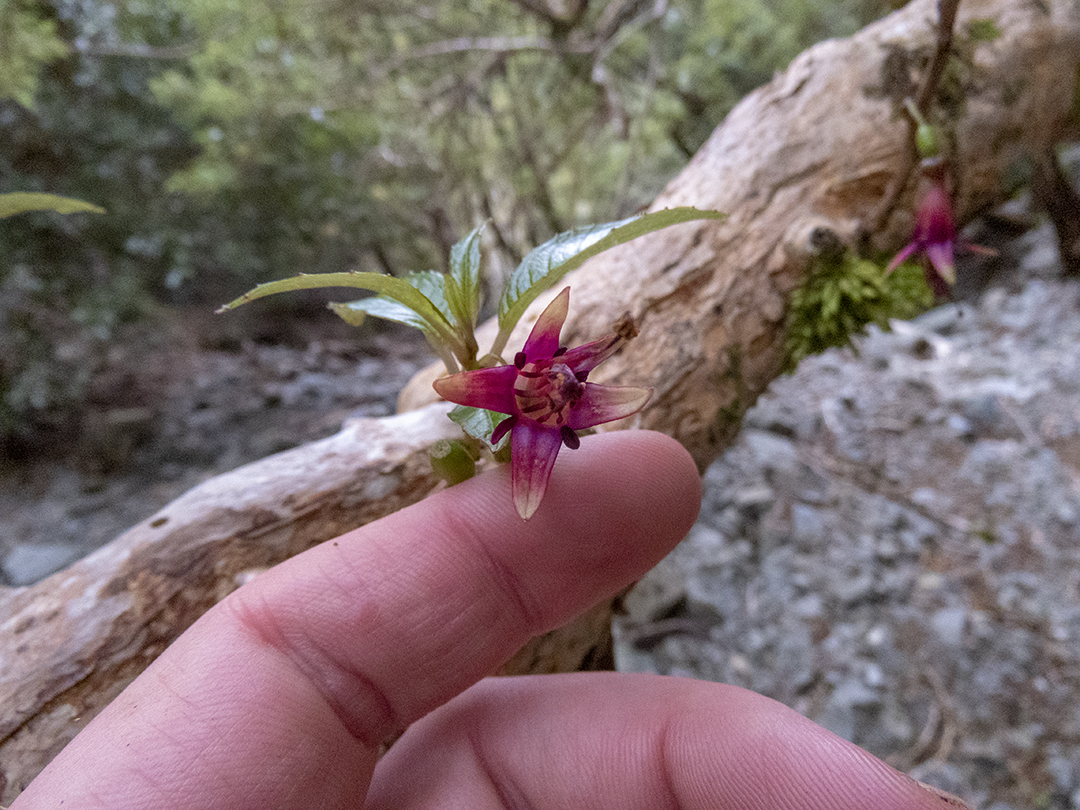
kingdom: Plantae
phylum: Tracheophyta
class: Magnoliopsida
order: Myrtales
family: Onagraceae
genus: Fuchsia
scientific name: Fuchsia excorticata
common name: Tree fuchsia
